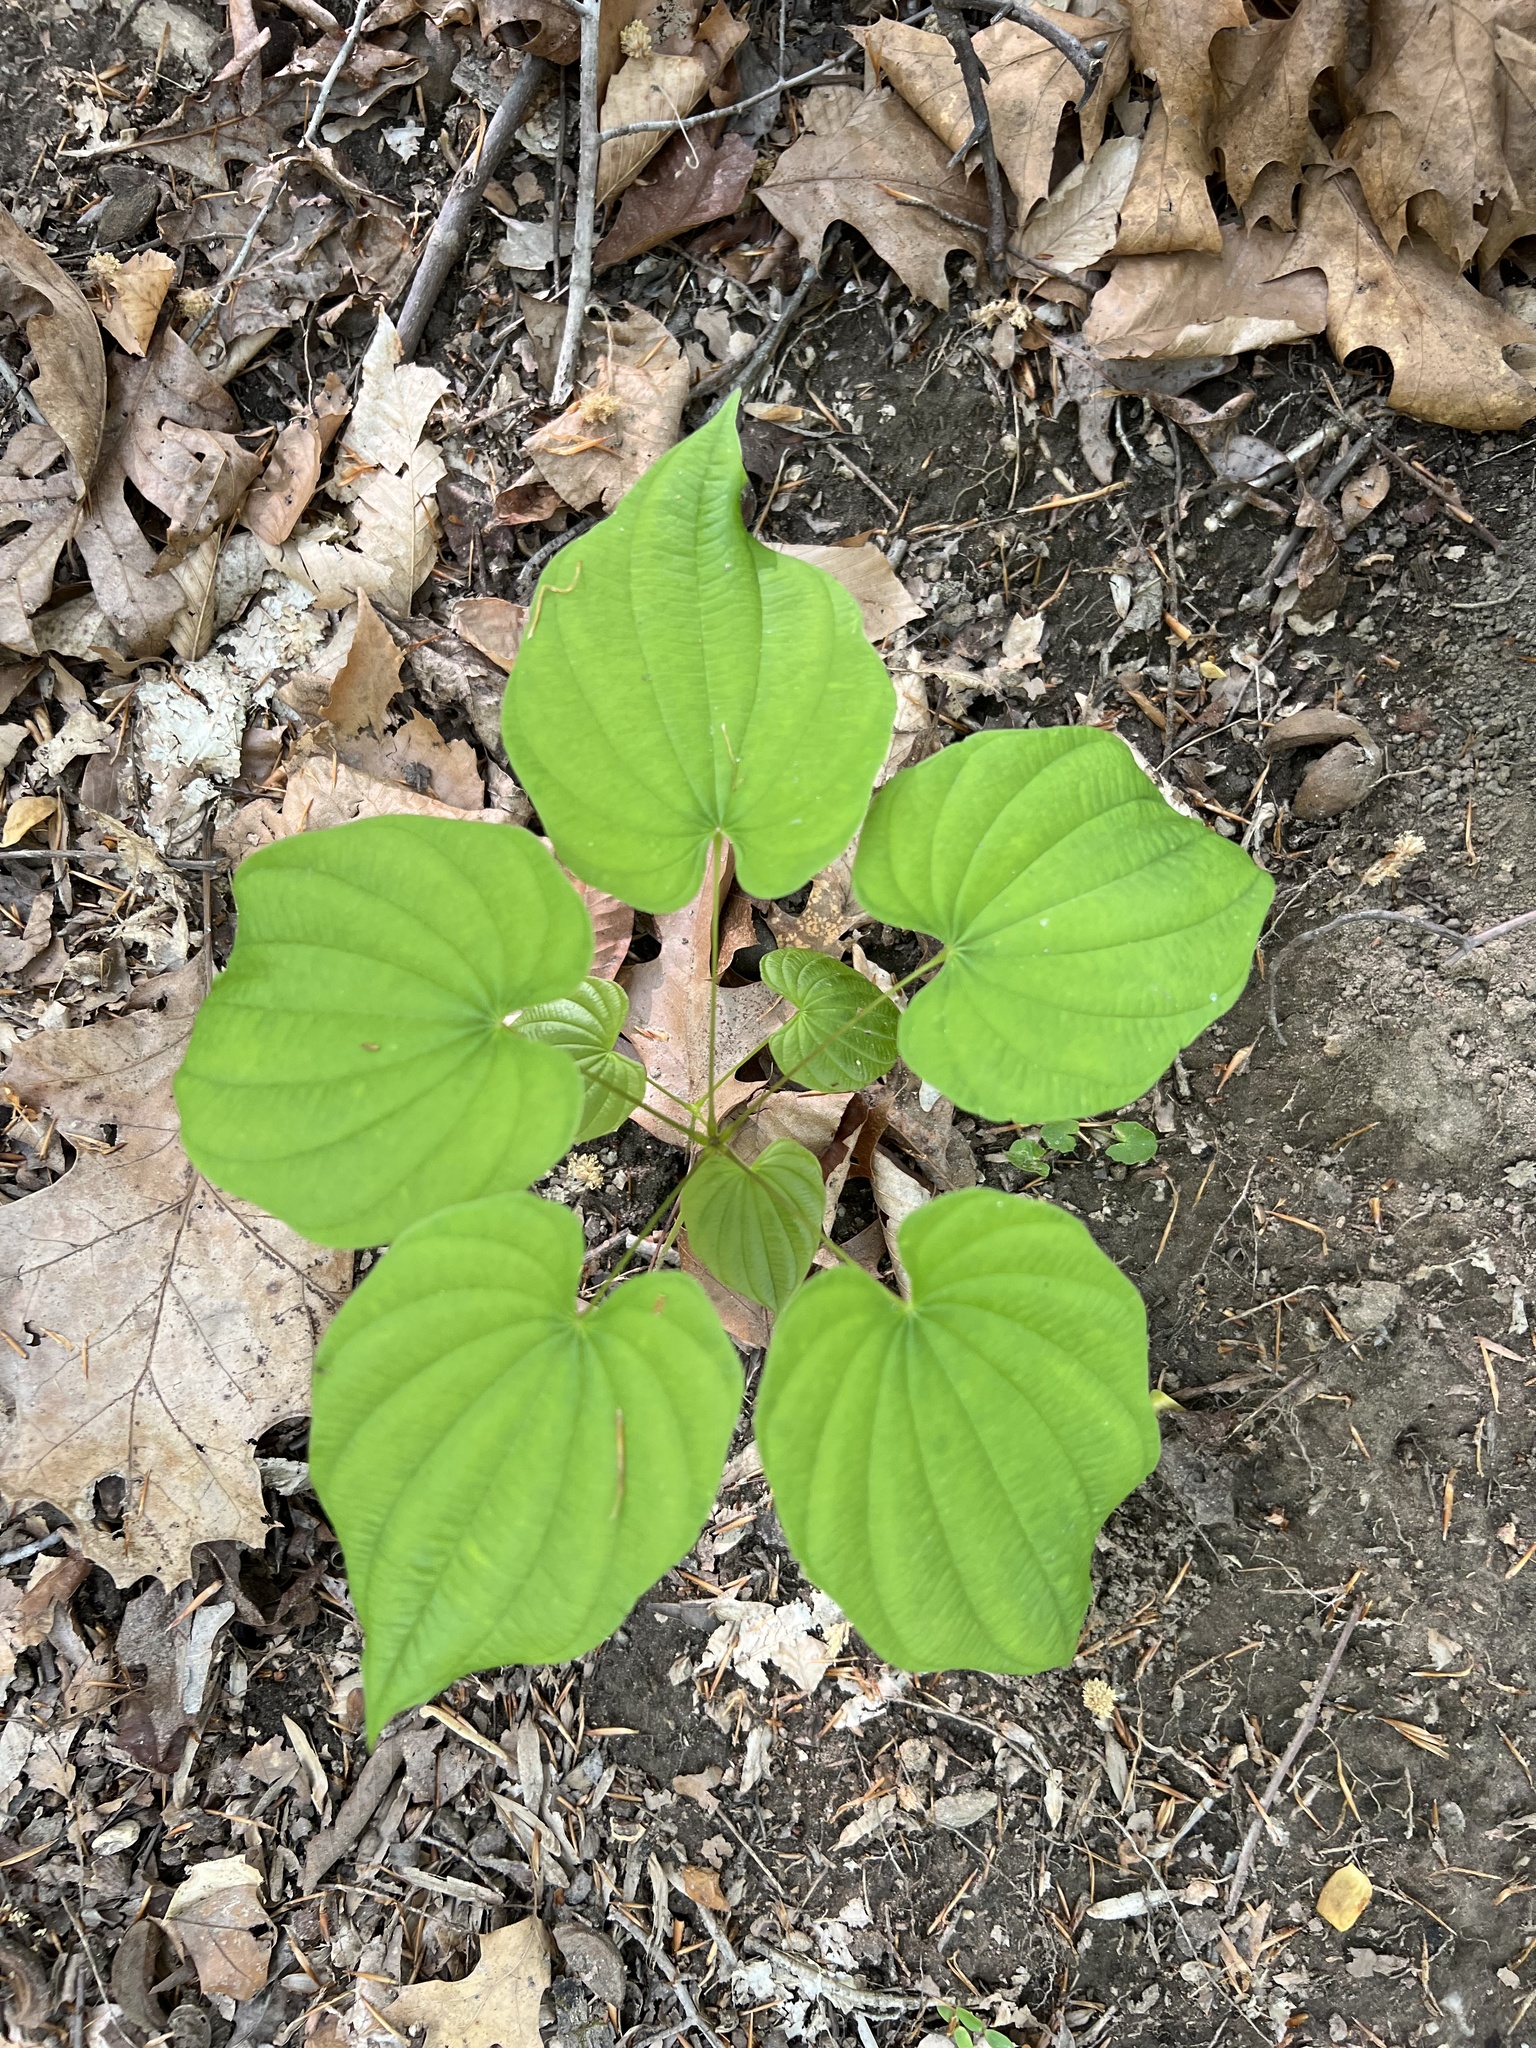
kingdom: Plantae
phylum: Tracheophyta
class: Liliopsida
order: Dioscoreales
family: Dioscoreaceae
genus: Dioscorea
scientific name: Dioscorea villosa
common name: Wild yam
